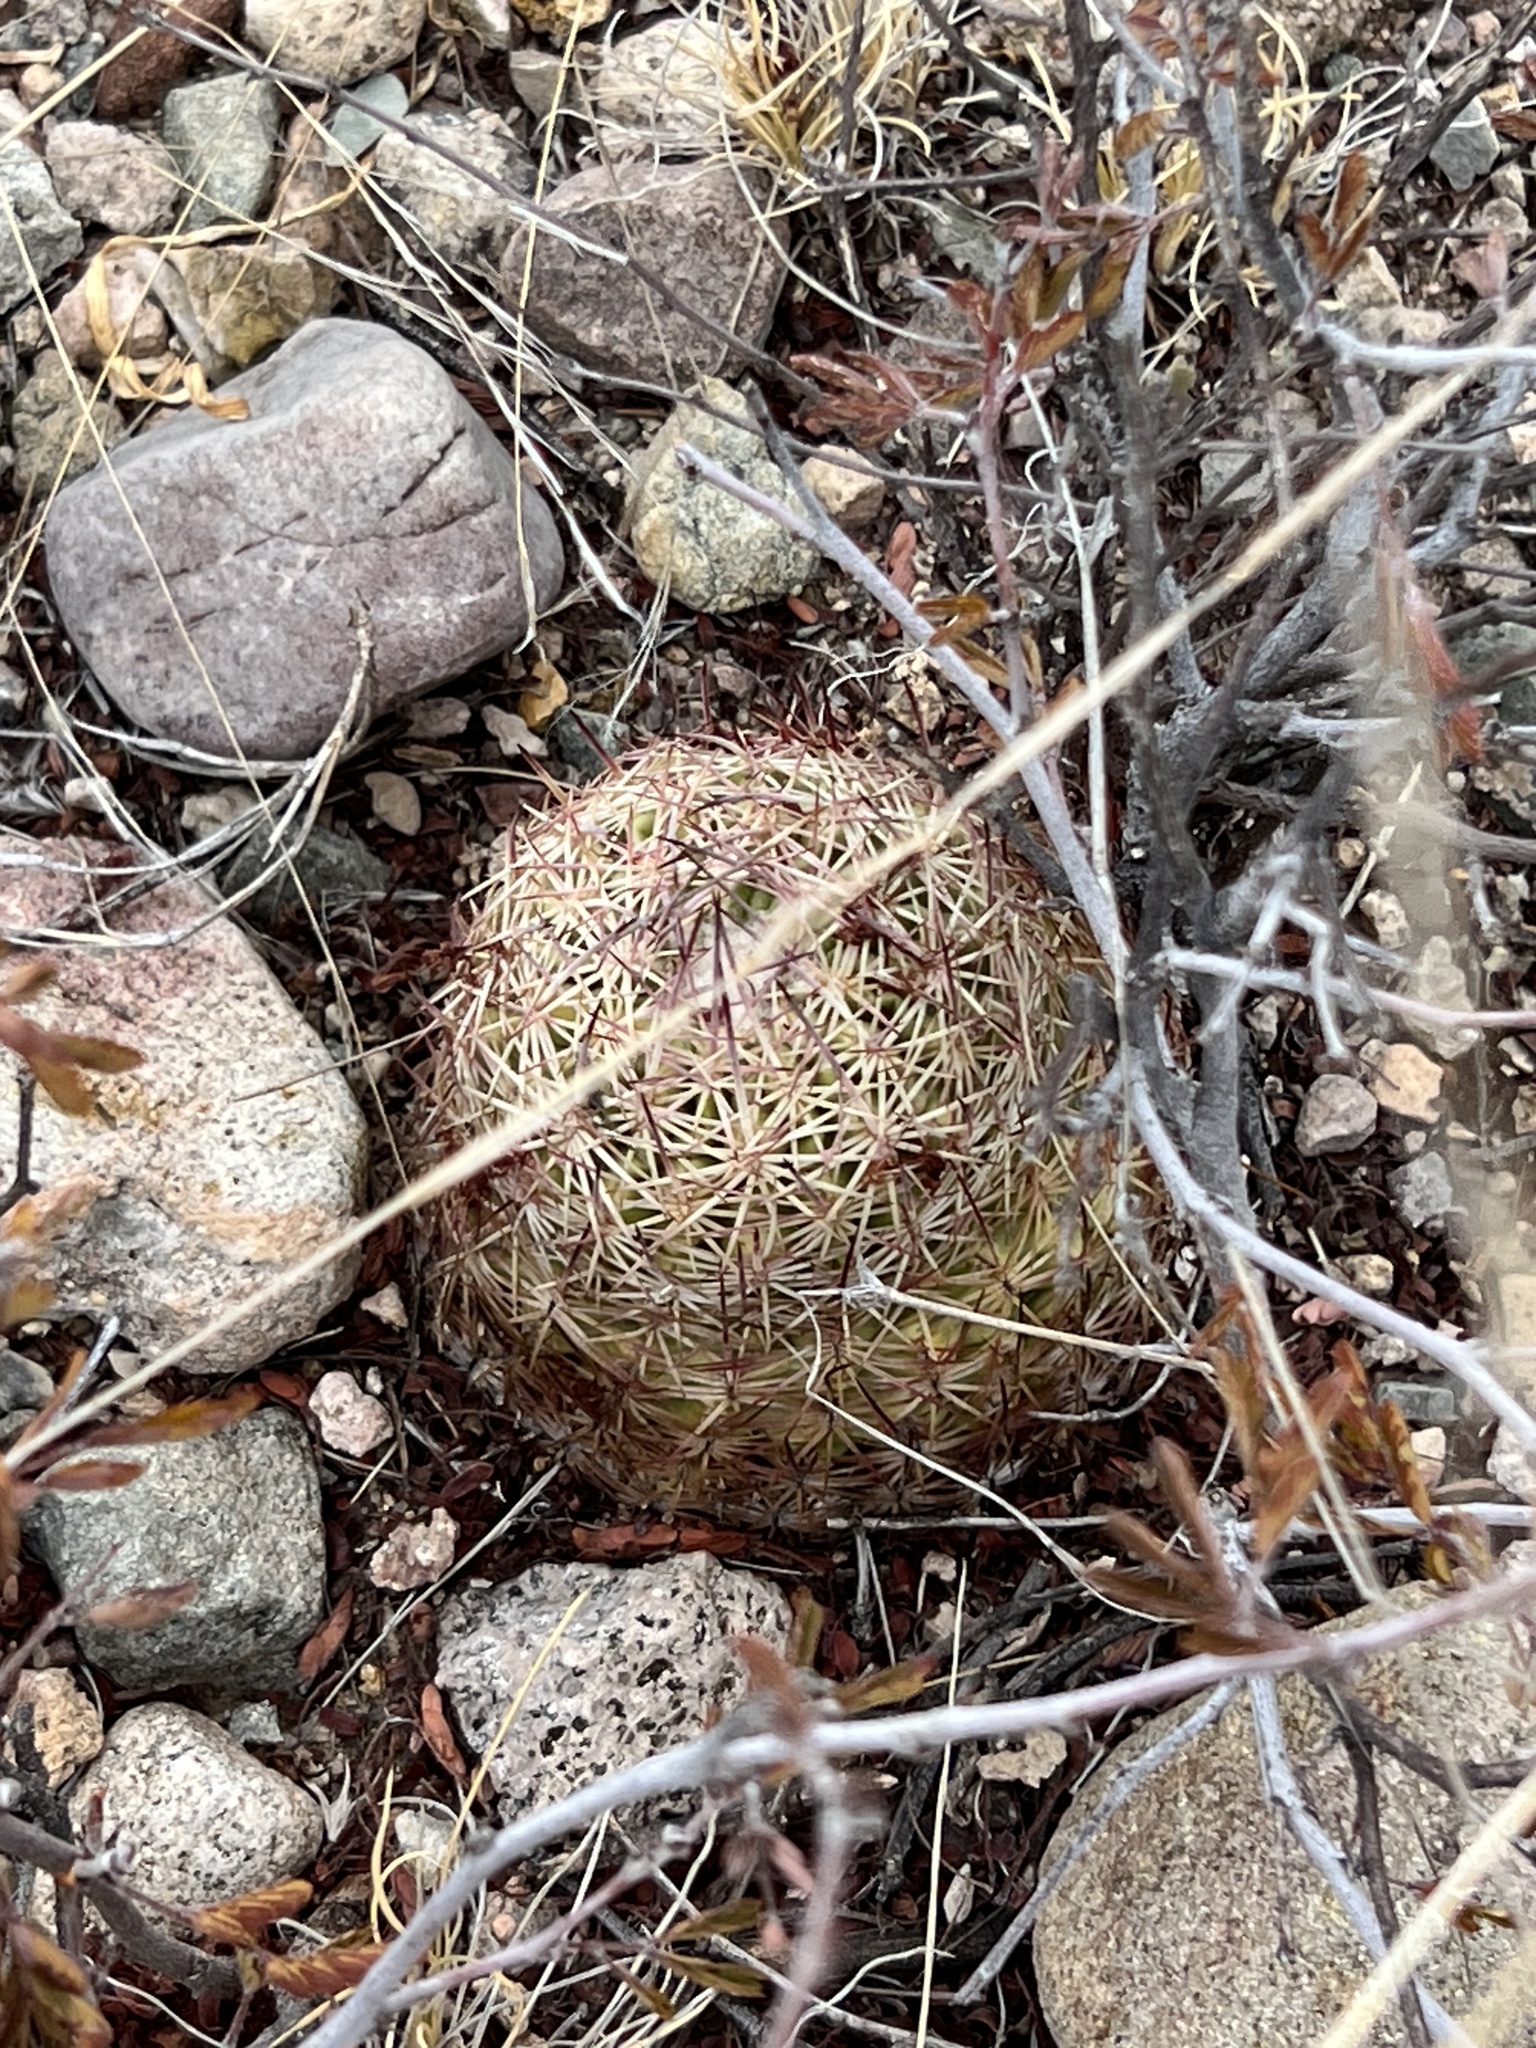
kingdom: Plantae
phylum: Tracheophyta
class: Magnoliopsida
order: Caryophyllales
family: Cactaceae
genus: Sclerocactus
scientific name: Sclerocactus johnsonii
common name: Eight-spine fishhook cactus
